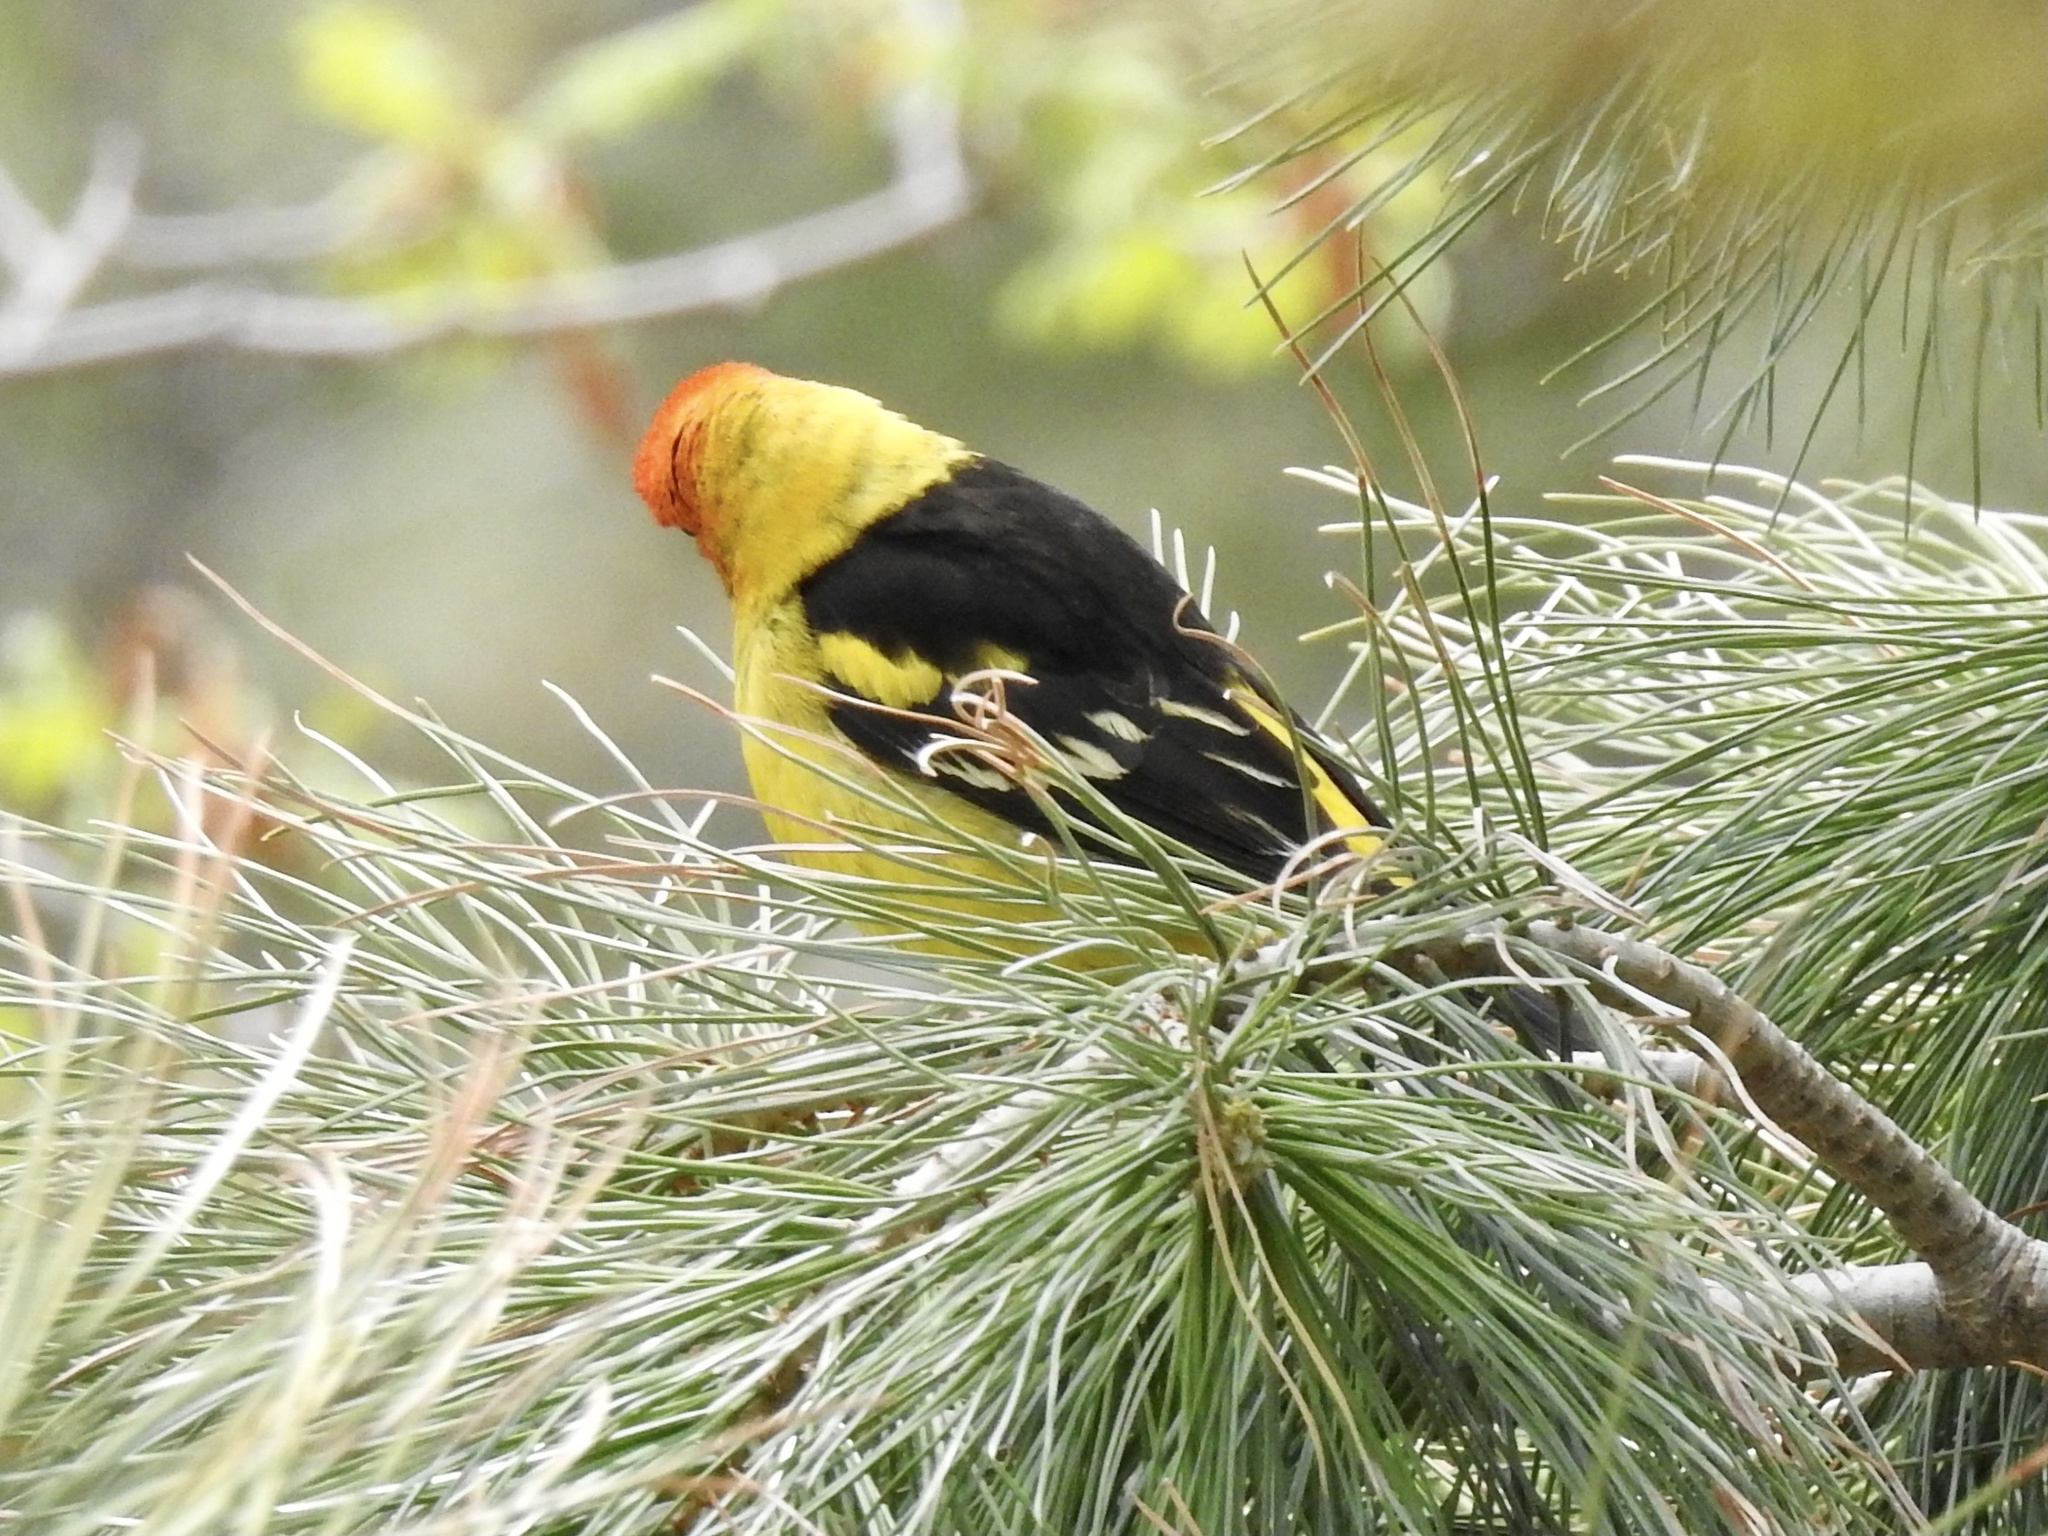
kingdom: Animalia
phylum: Chordata
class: Aves
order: Passeriformes
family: Cardinalidae
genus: Piranga
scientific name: Piranga ludoviciana
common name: Western tanager
